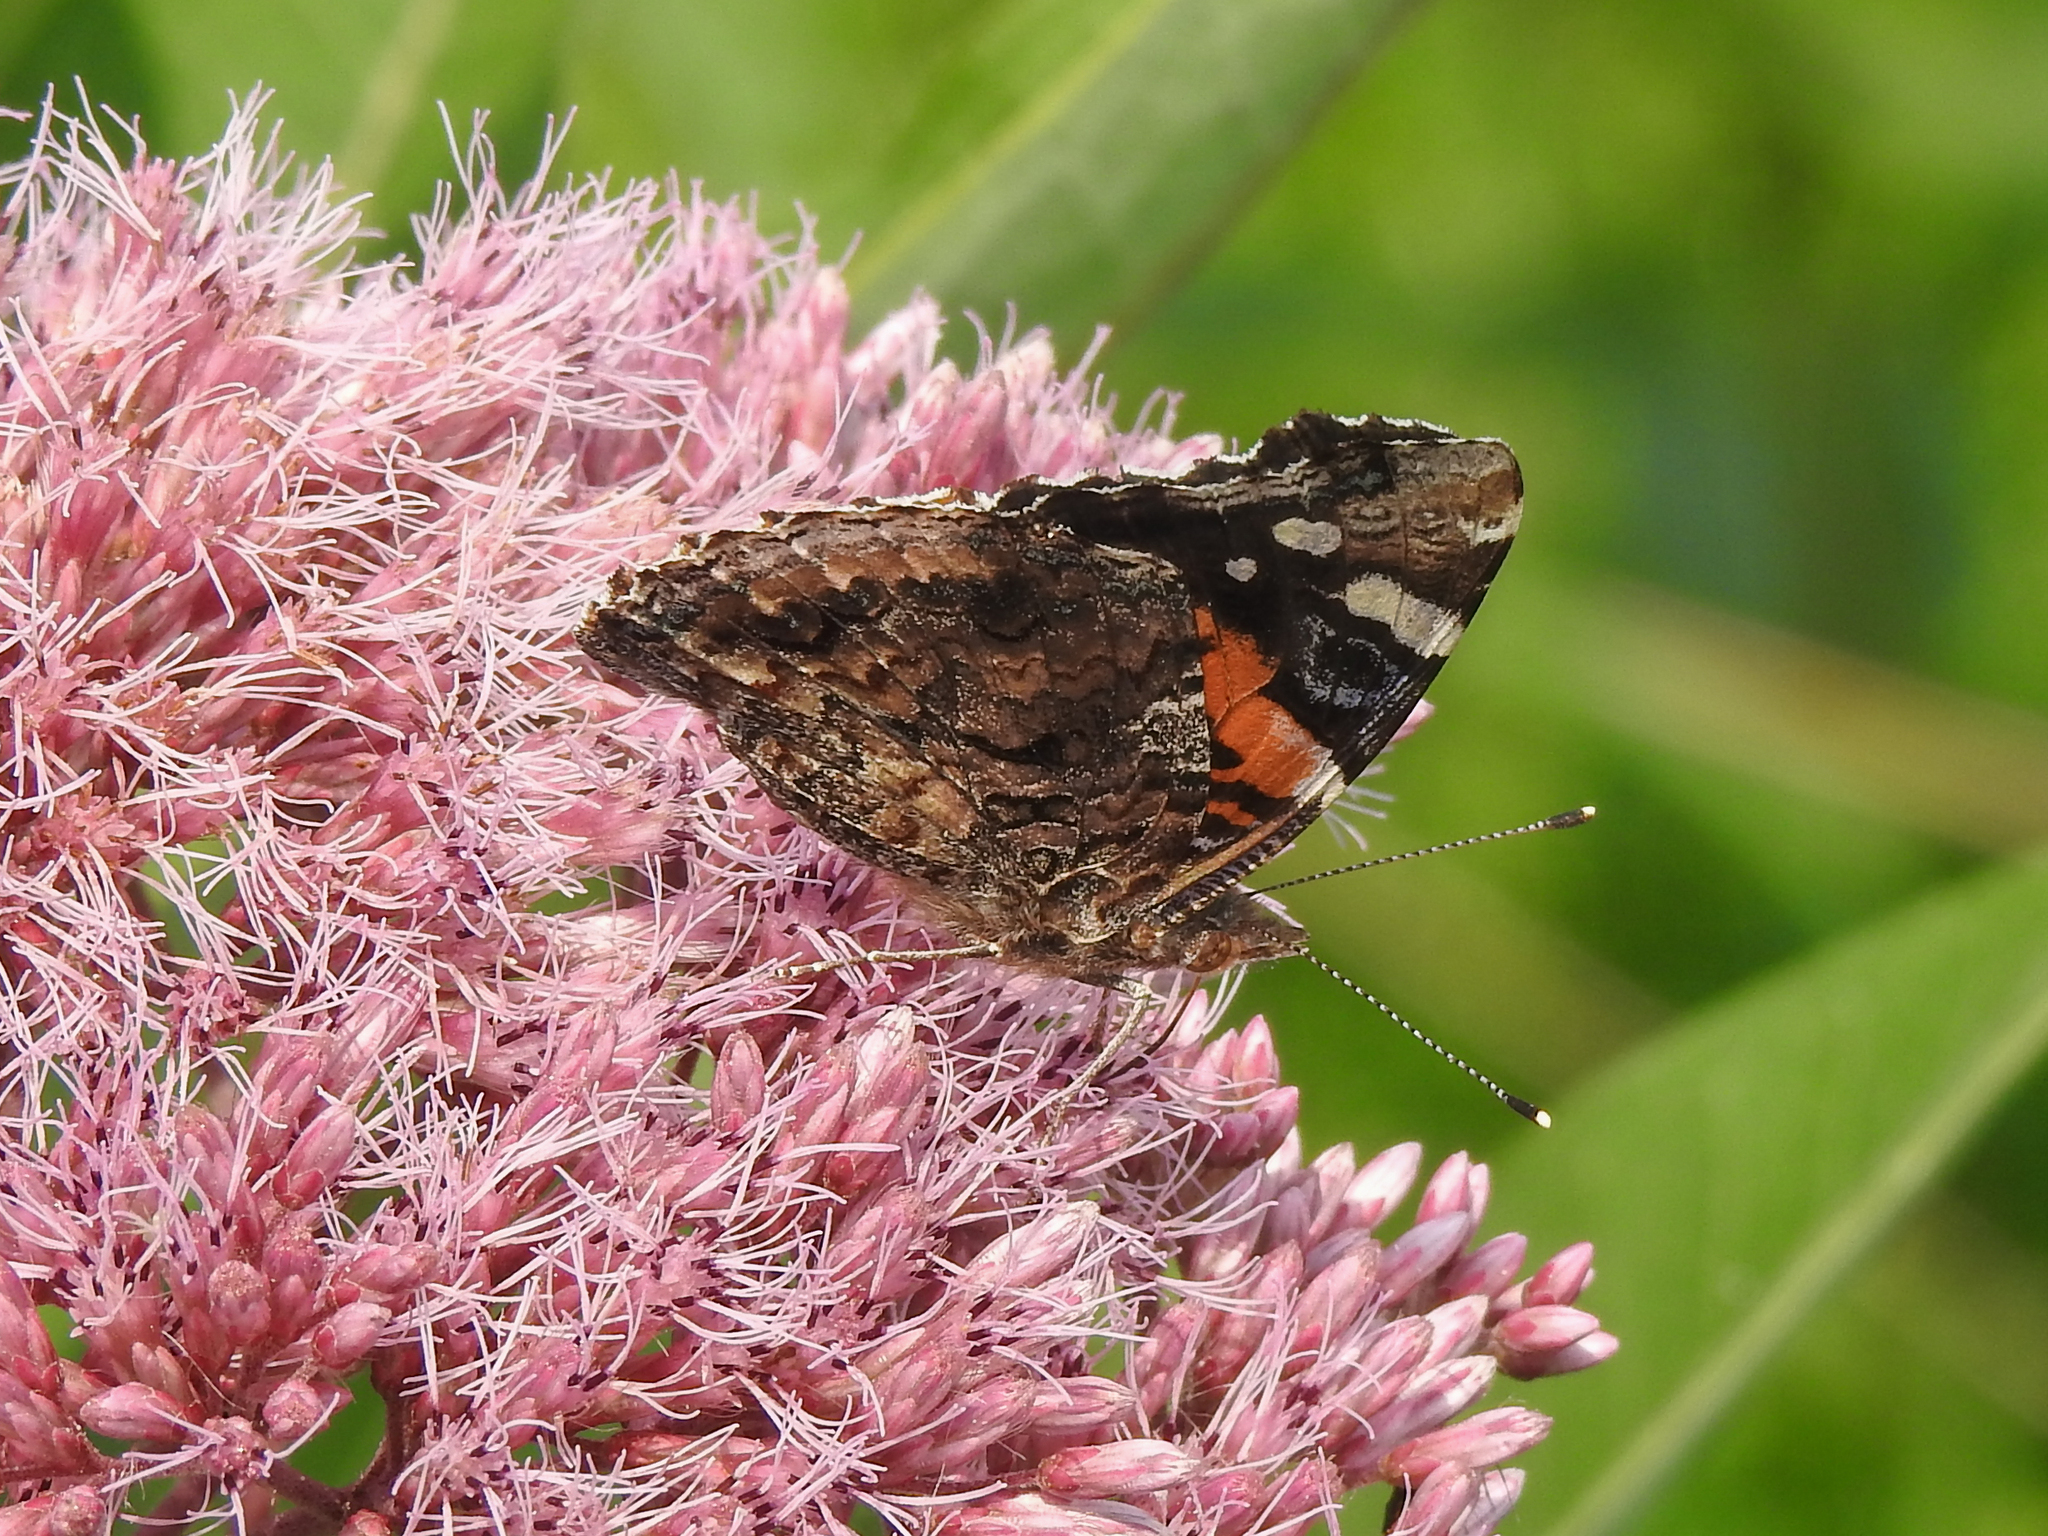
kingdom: Animalia
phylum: Arthropoda
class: Insecta
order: Lepidoptera
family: Nymphalidae
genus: Vanessa
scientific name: Vanessa atalanta
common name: Red admiral
